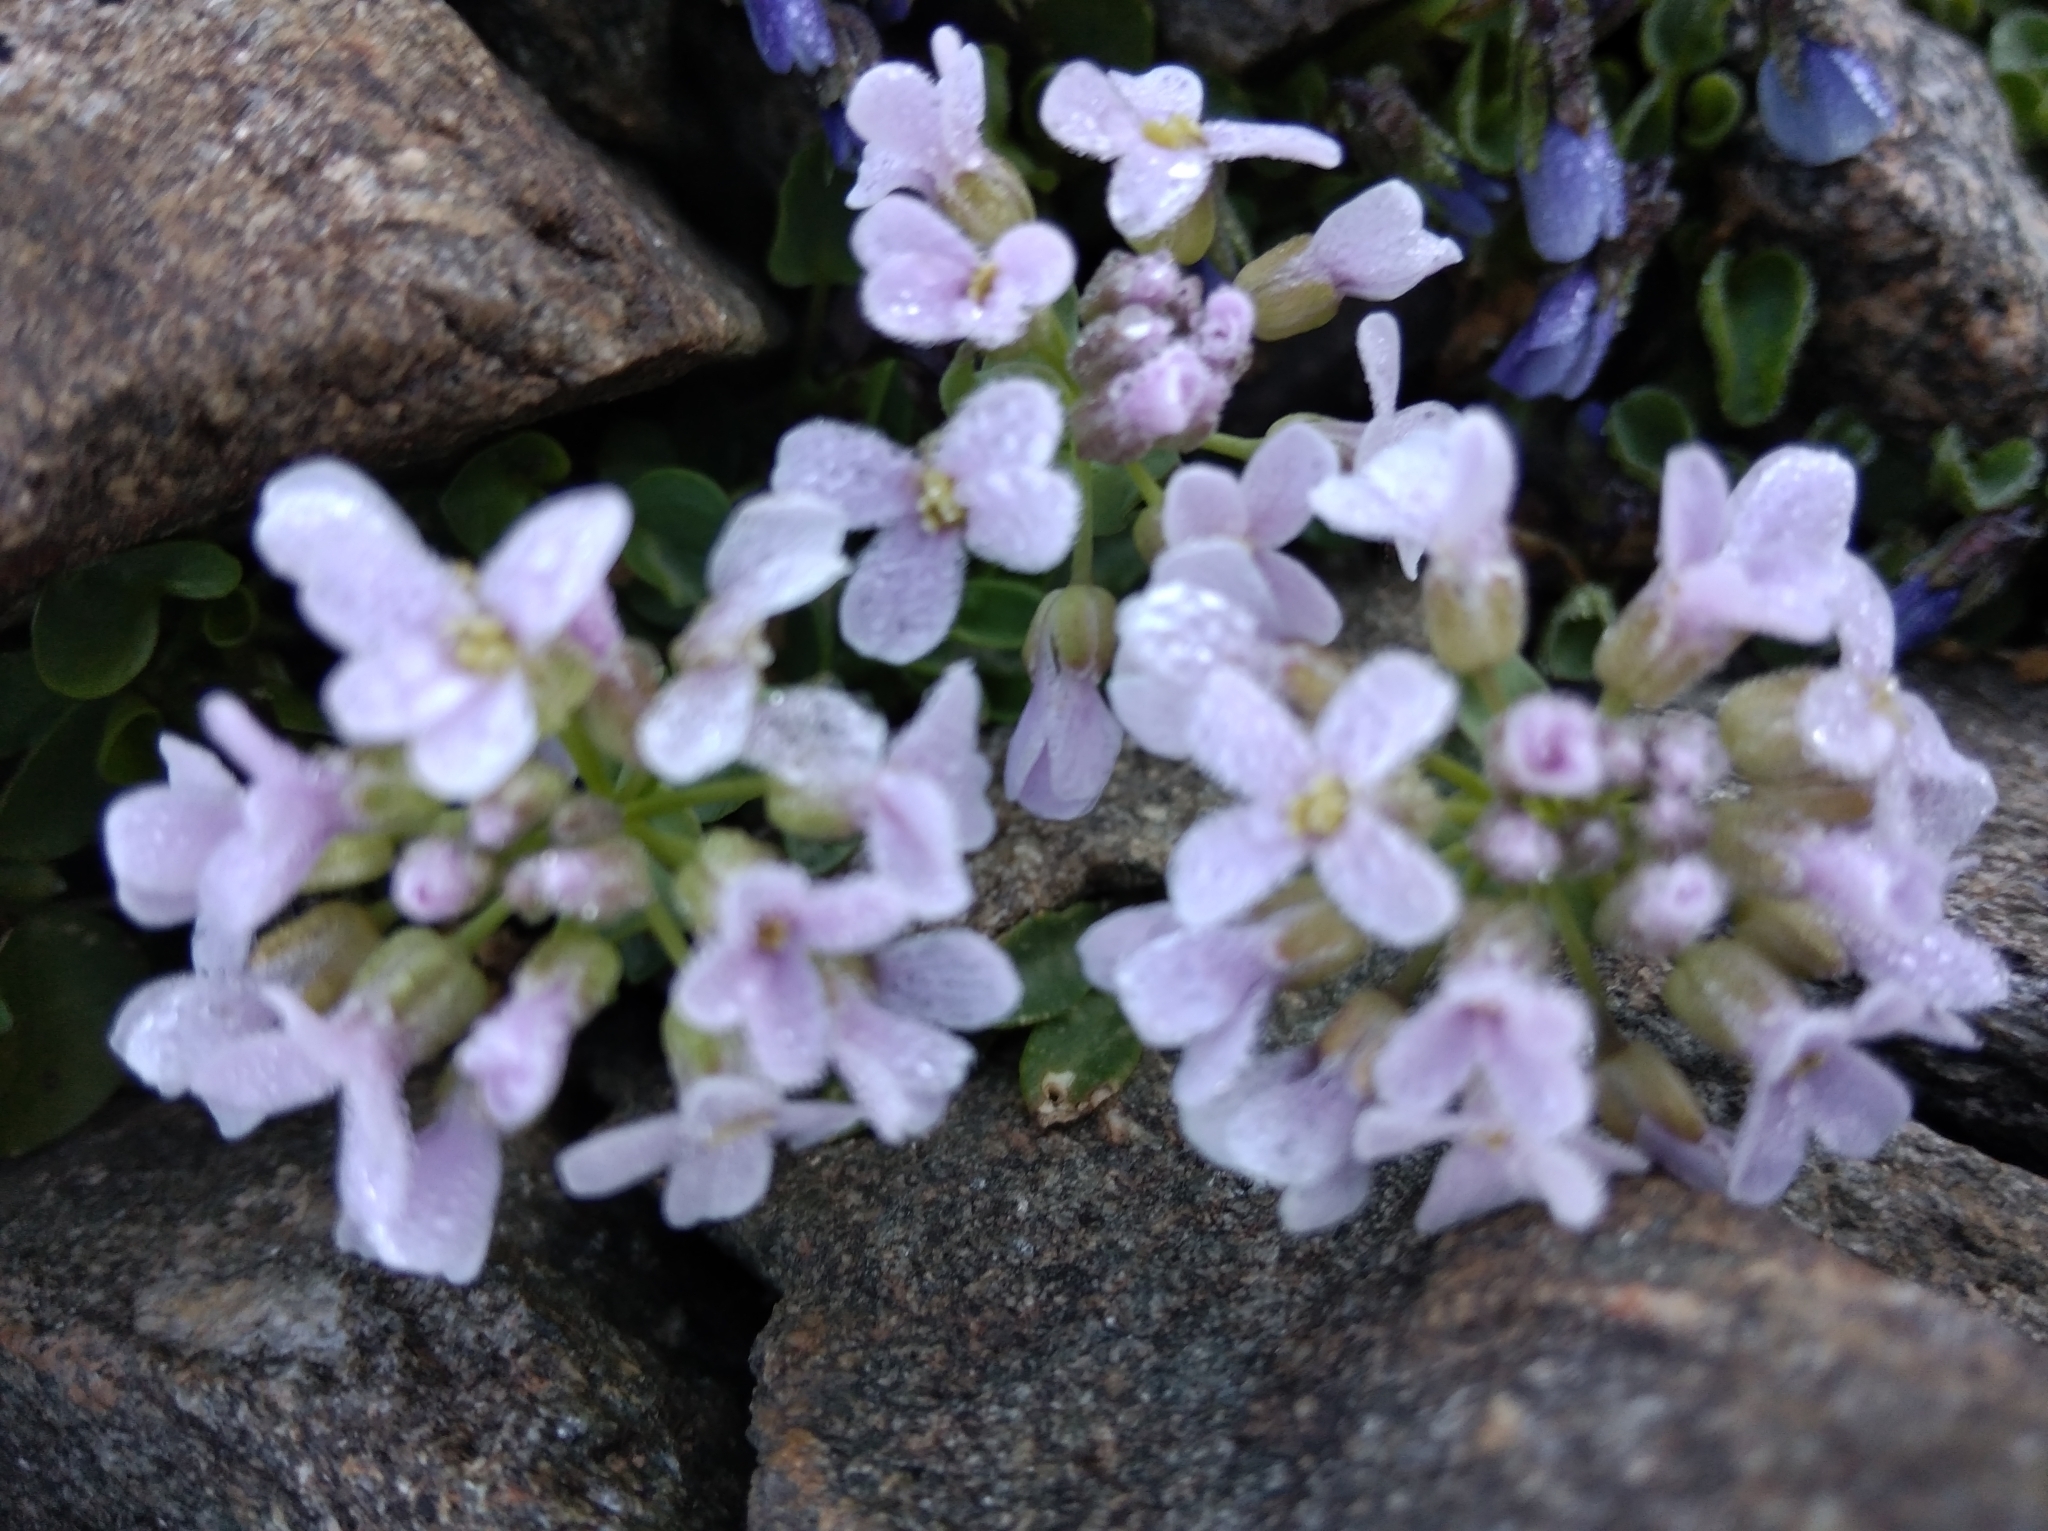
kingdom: Plantae
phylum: Tracheophyta
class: Magnoliopsida
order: Brassicales
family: Brassicaceae
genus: Noccaea
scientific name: Noccaea rotundifolia
